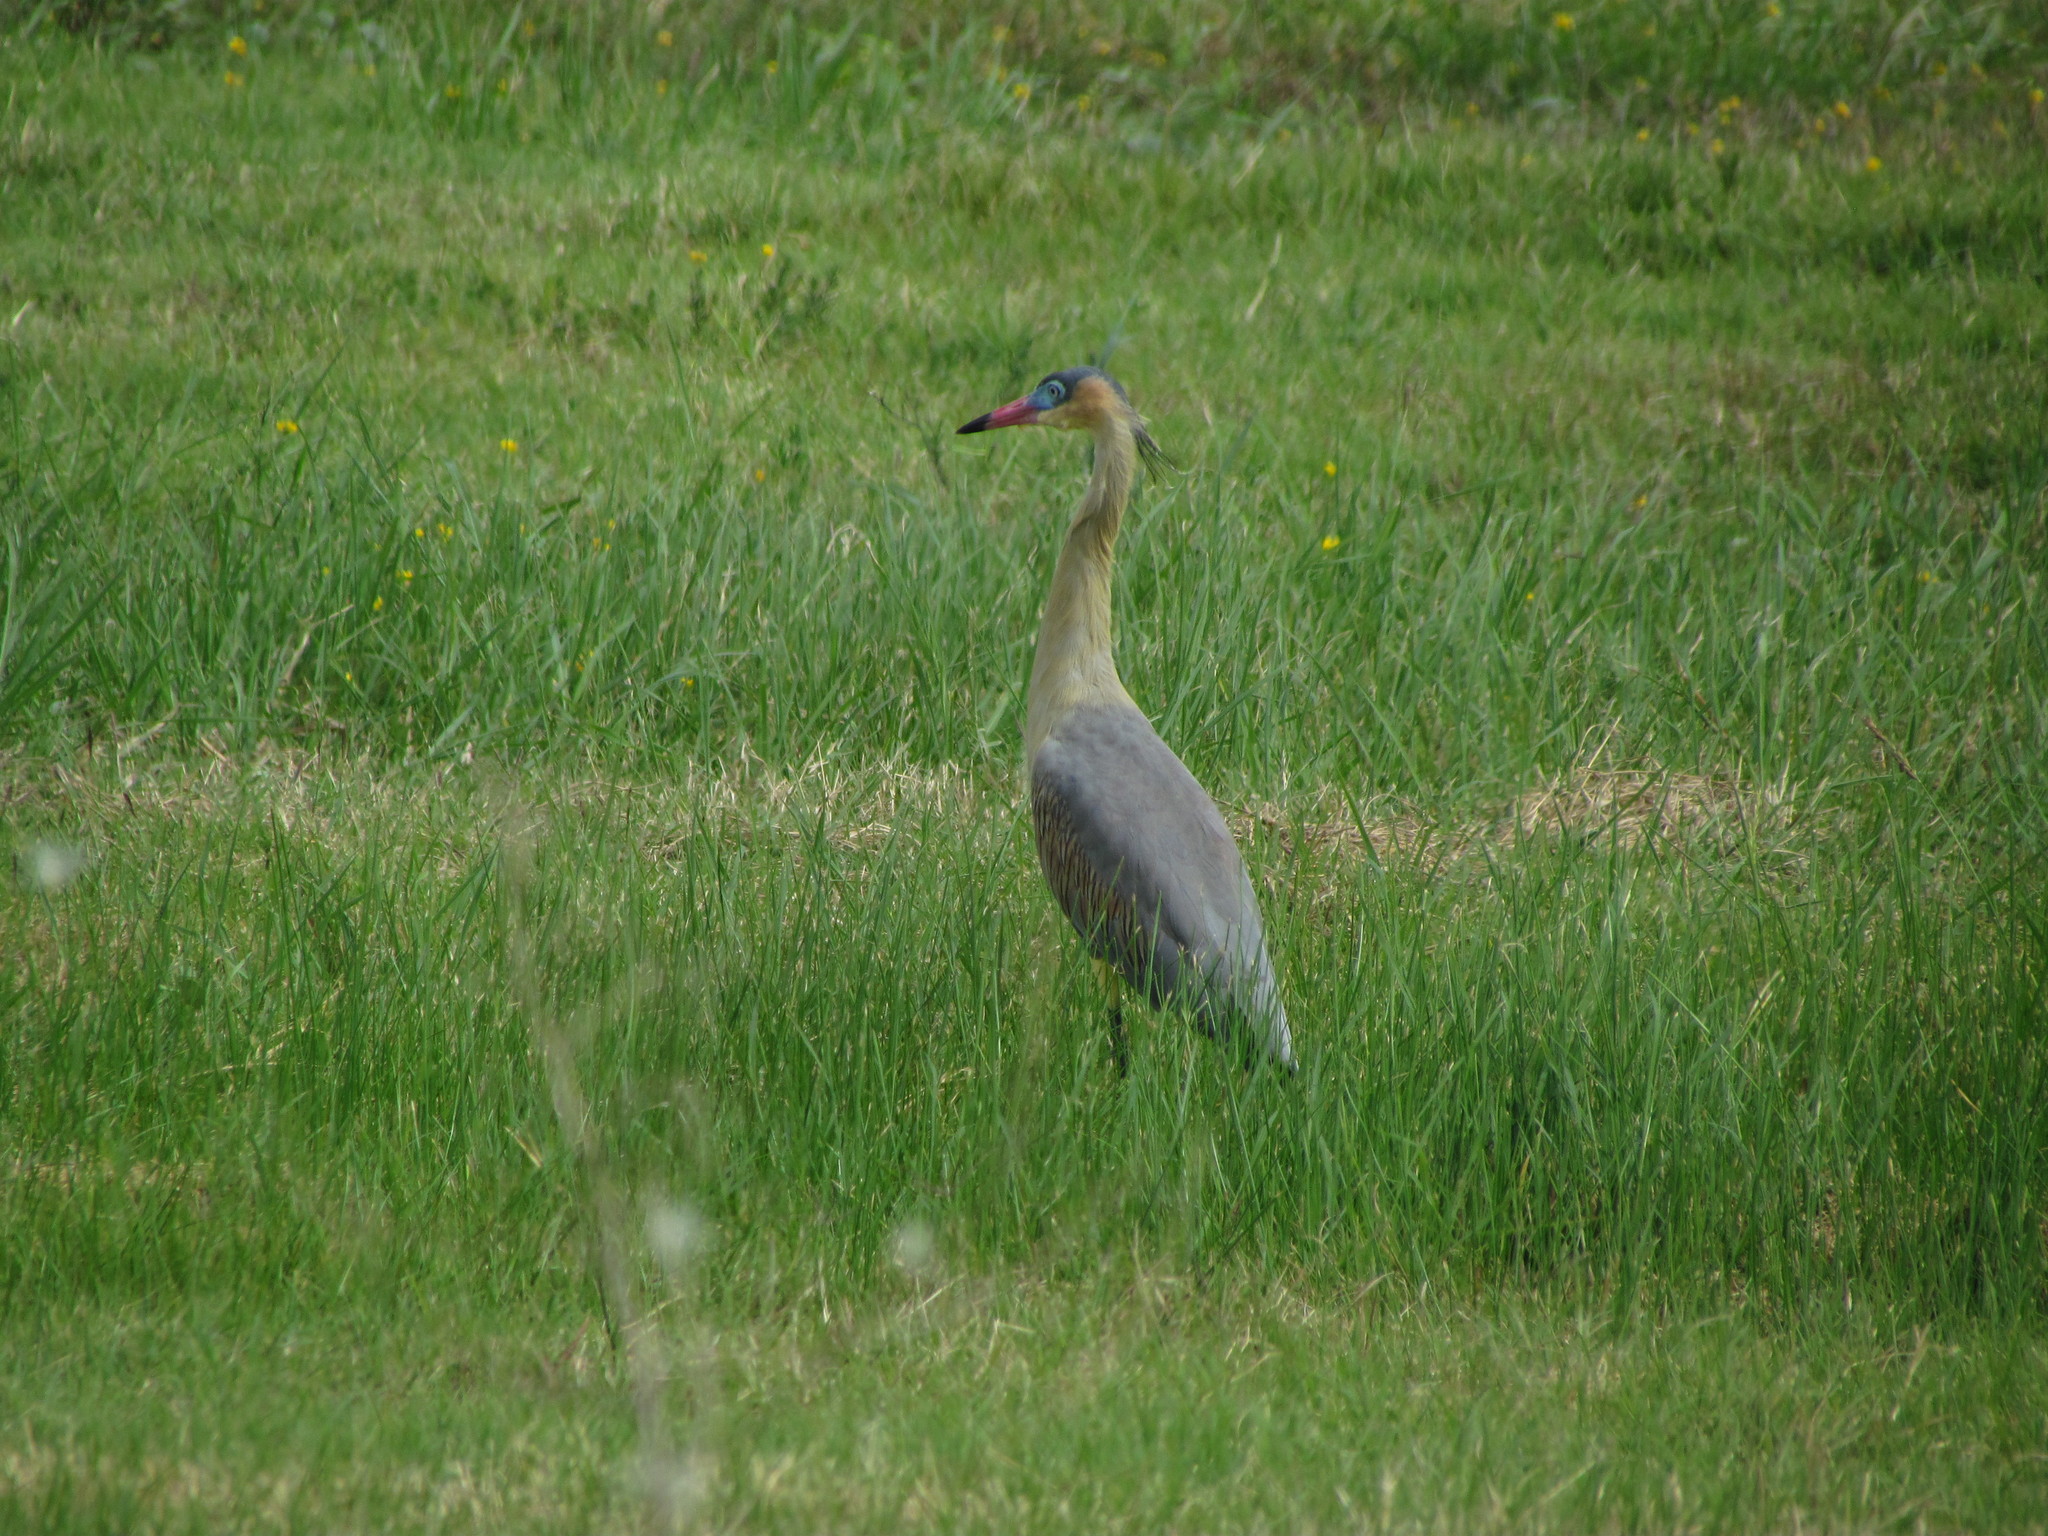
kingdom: Animalia
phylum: Chordata
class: Aves
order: Pelecaniformes
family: Ardeidae
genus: Syrigma
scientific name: Syrigma sibilatrix
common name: Whistling heron
